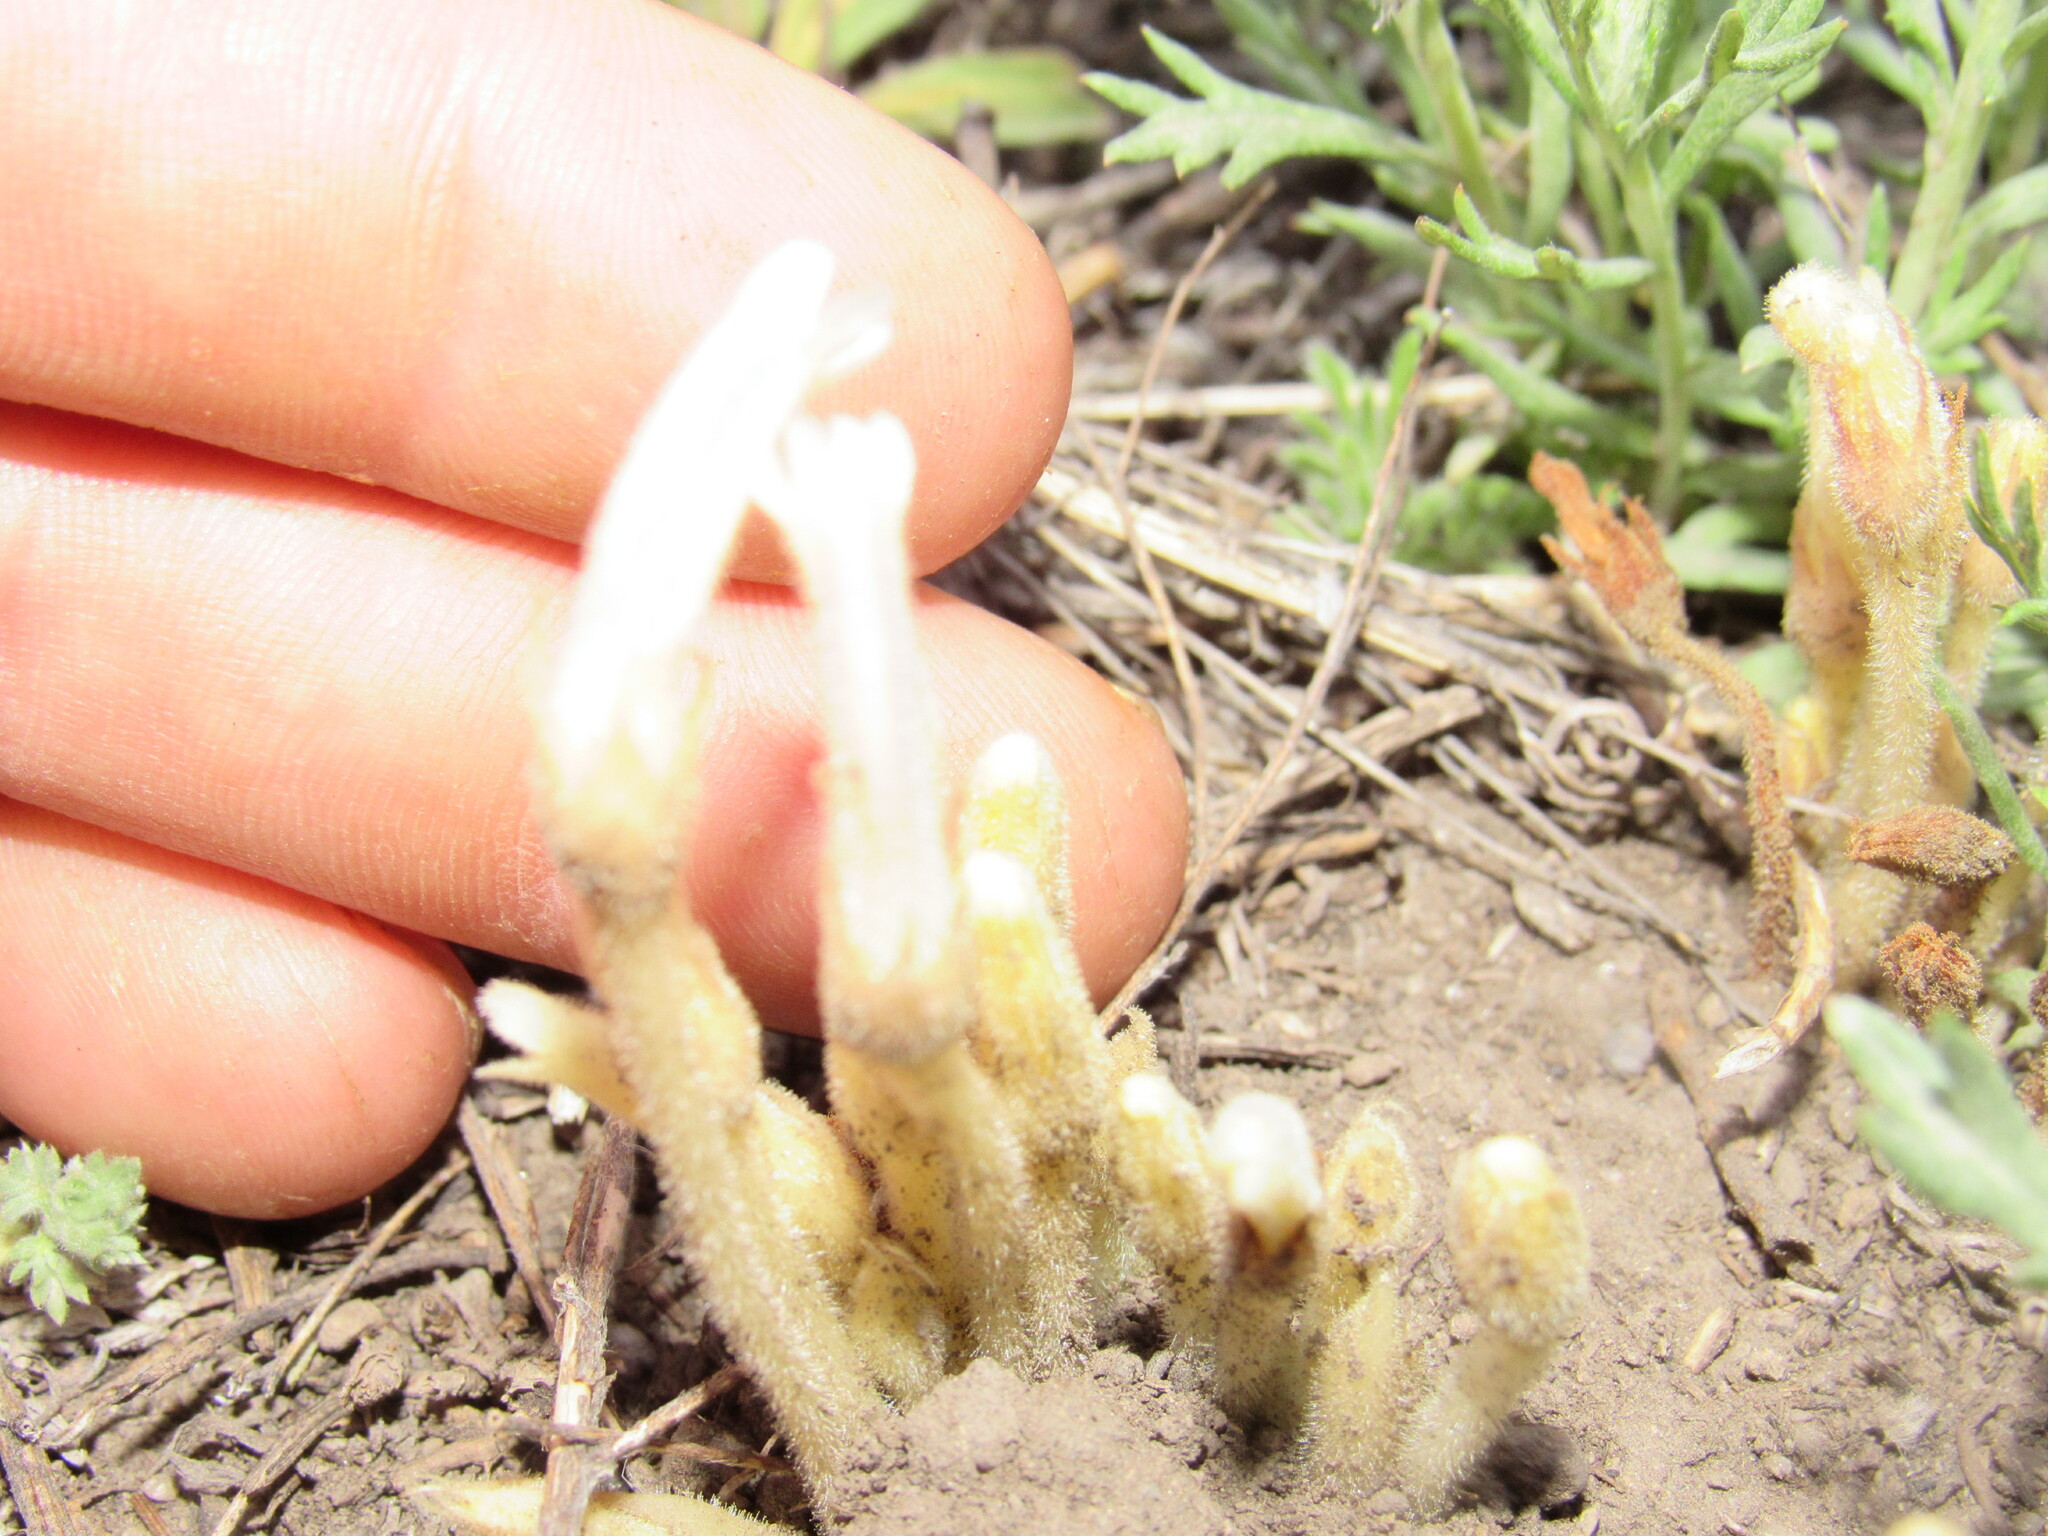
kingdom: Plantae
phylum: Tracheophyta
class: Magnoliopsida
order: Lamiales
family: Orobanchaceae
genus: Aphyllon
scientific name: Aphyllon fasciculatum
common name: Clustered broomrape
